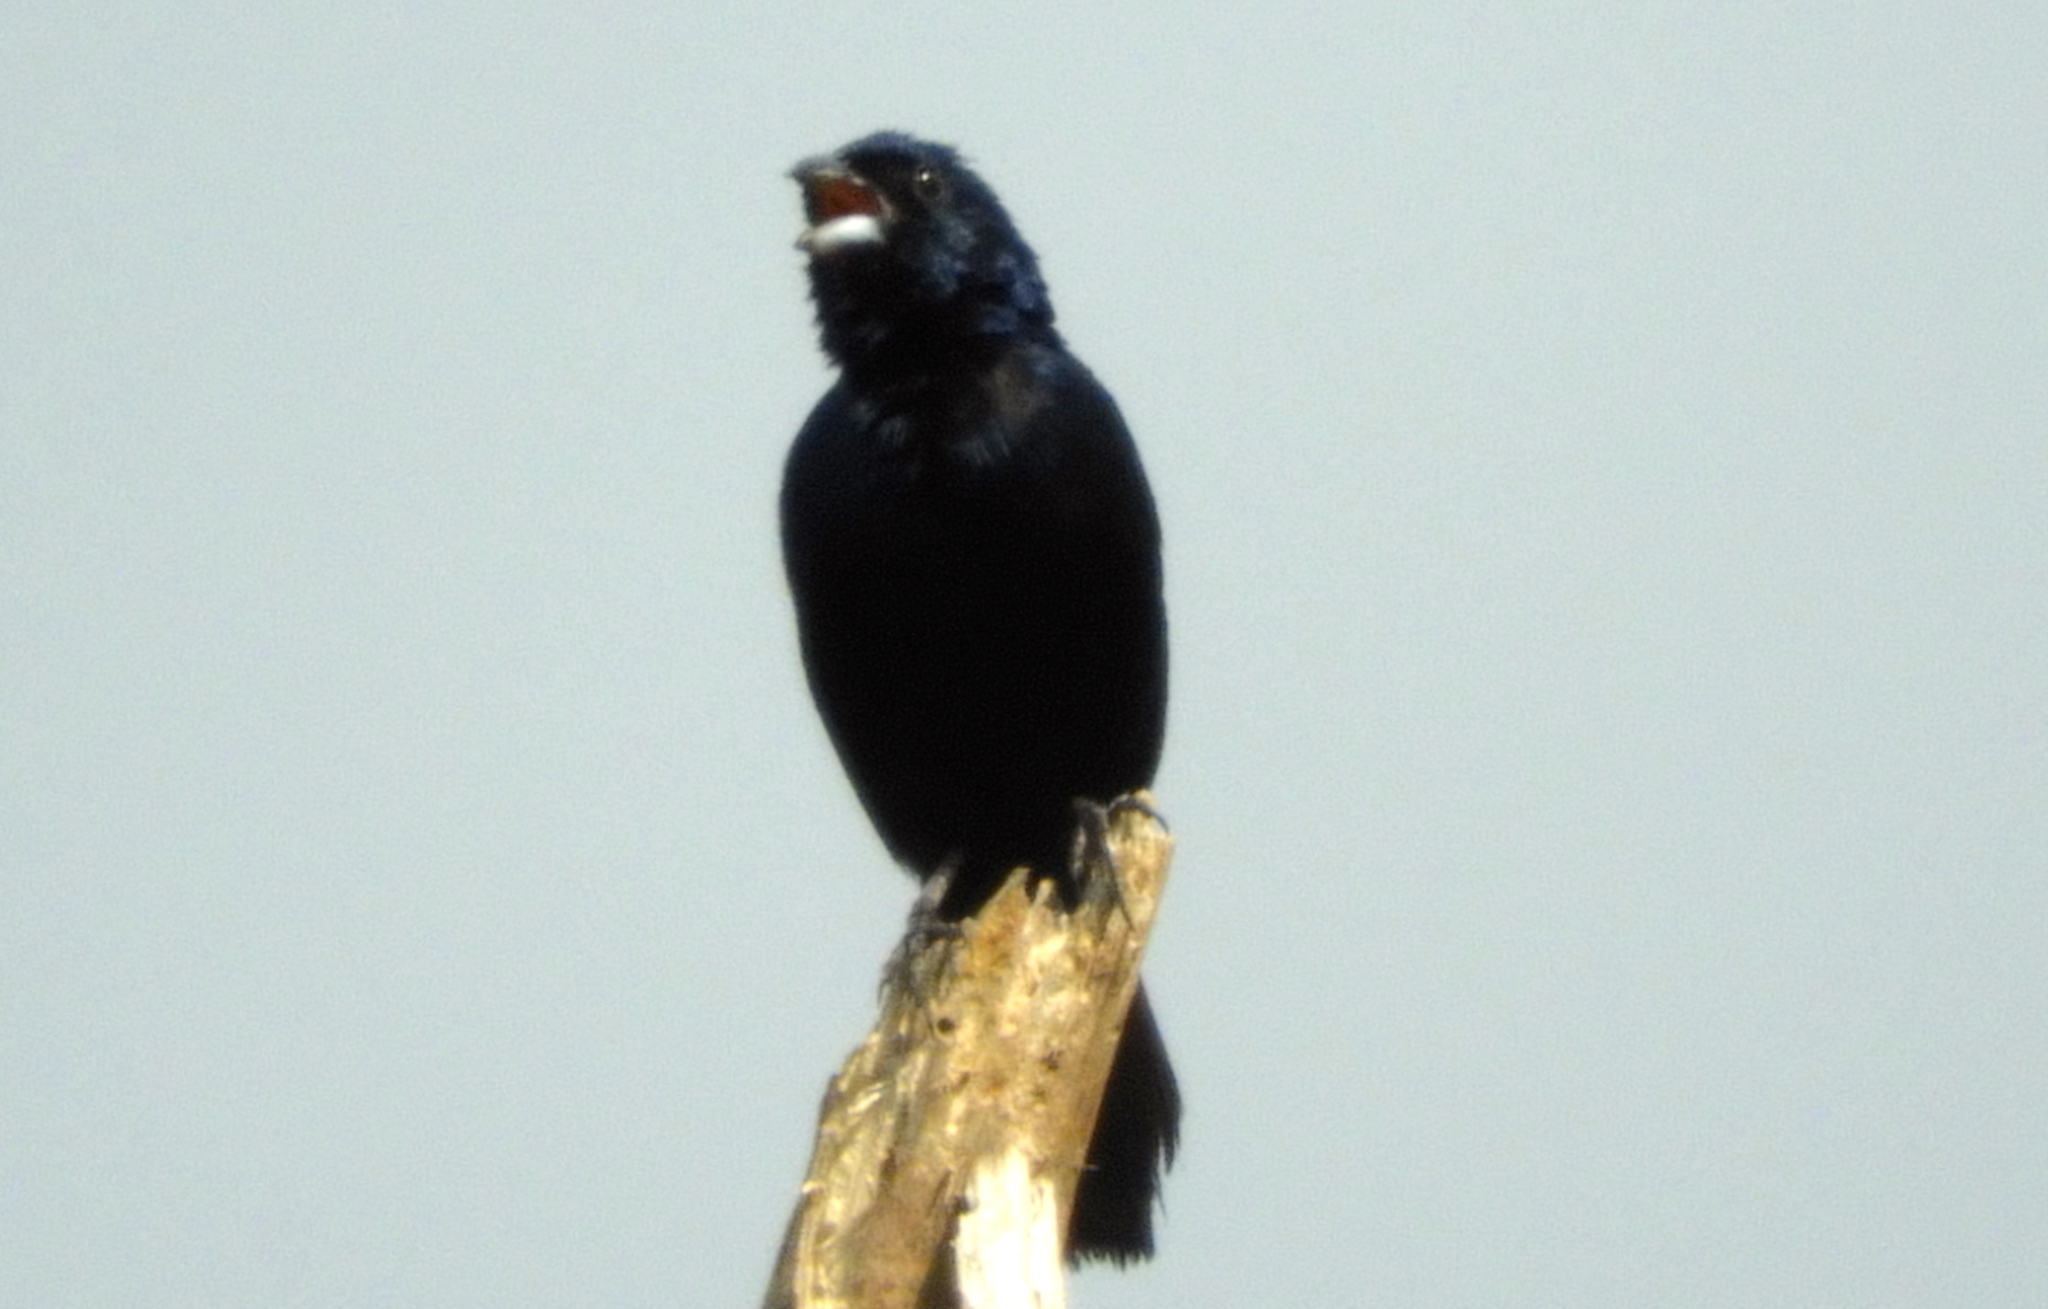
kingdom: Animalia
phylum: Chordata
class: Aves
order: Passeriformes
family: Thraupidae
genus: Volatinia
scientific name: Volatinia jacarina
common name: Blue-black grassquit
